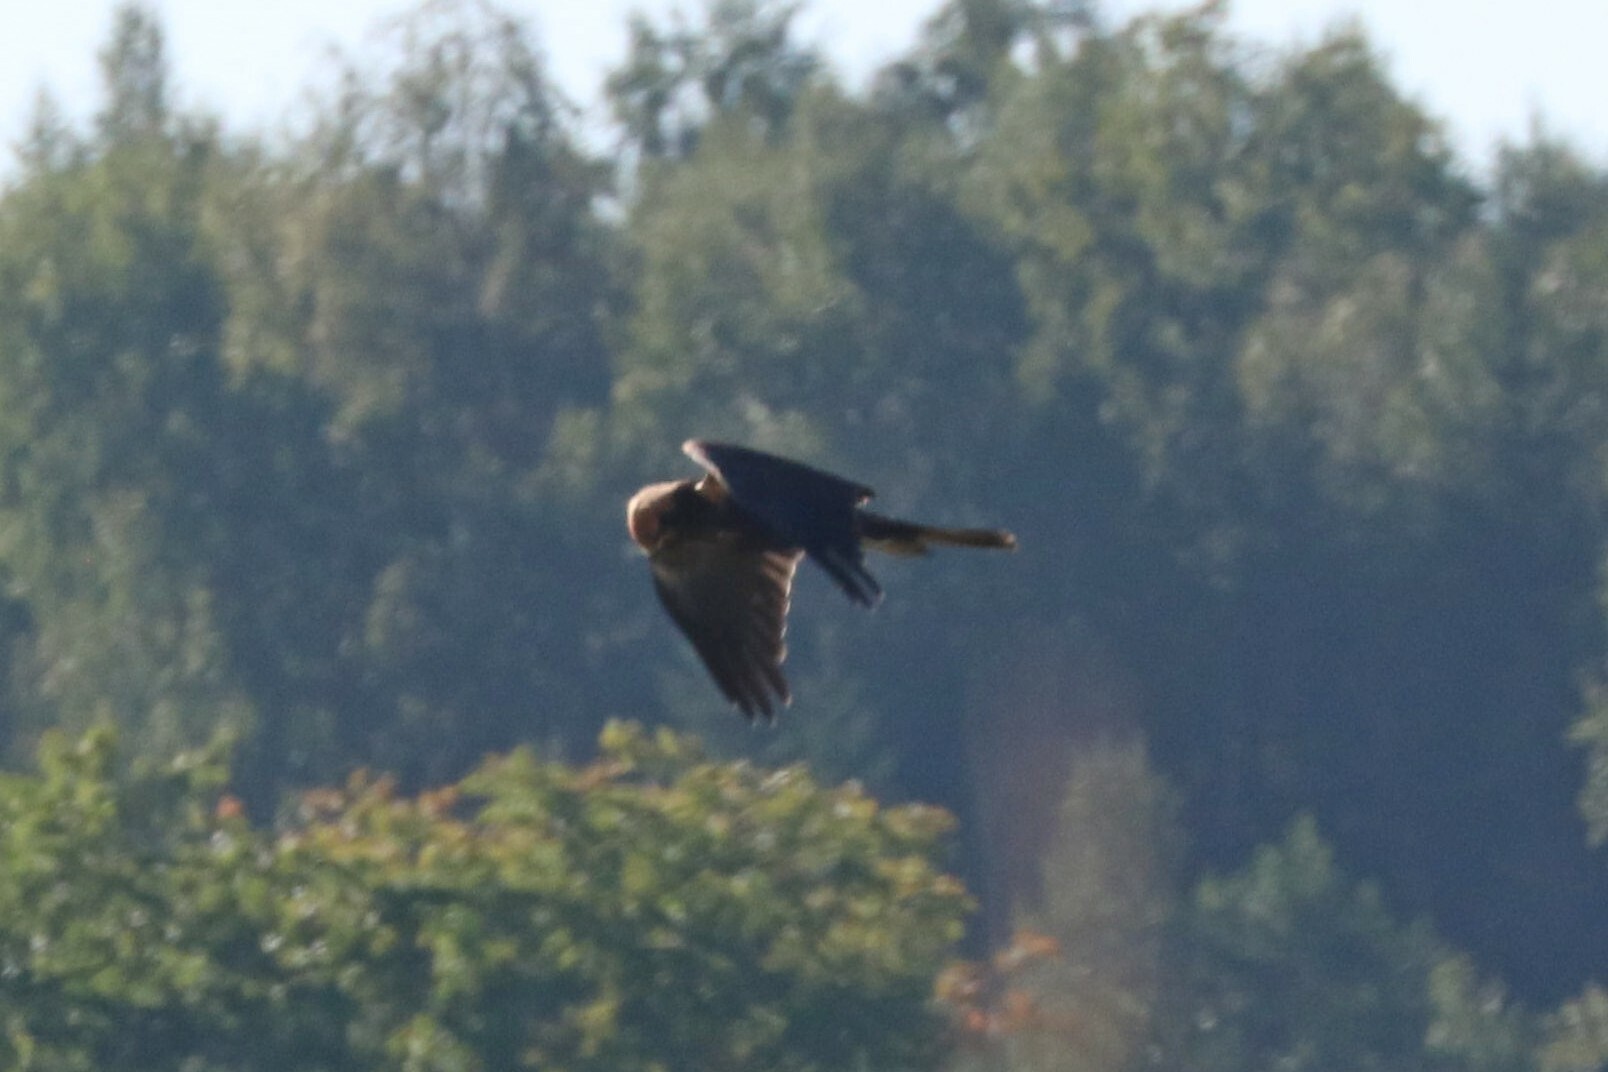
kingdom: Animalia
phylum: Chordata
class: Aves
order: Accipitriformes
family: Accipitridae
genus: Circus
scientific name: Circus aeruginosus
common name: Western marsh harrier
